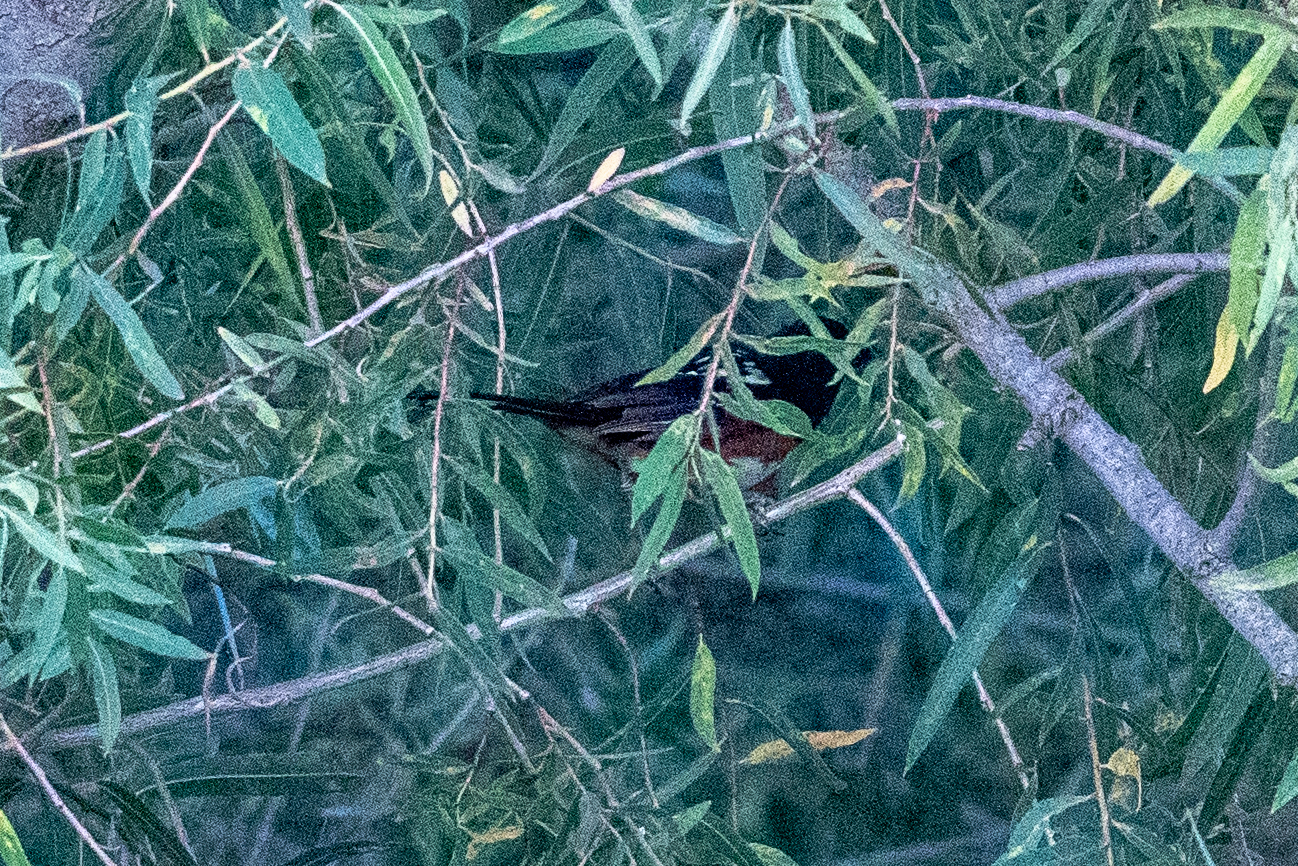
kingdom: Animalia
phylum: Chordata
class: Aves
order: Passeriformes
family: Passerellidae
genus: Pipilo
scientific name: Pipilo maculatus
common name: Spotted towhee
